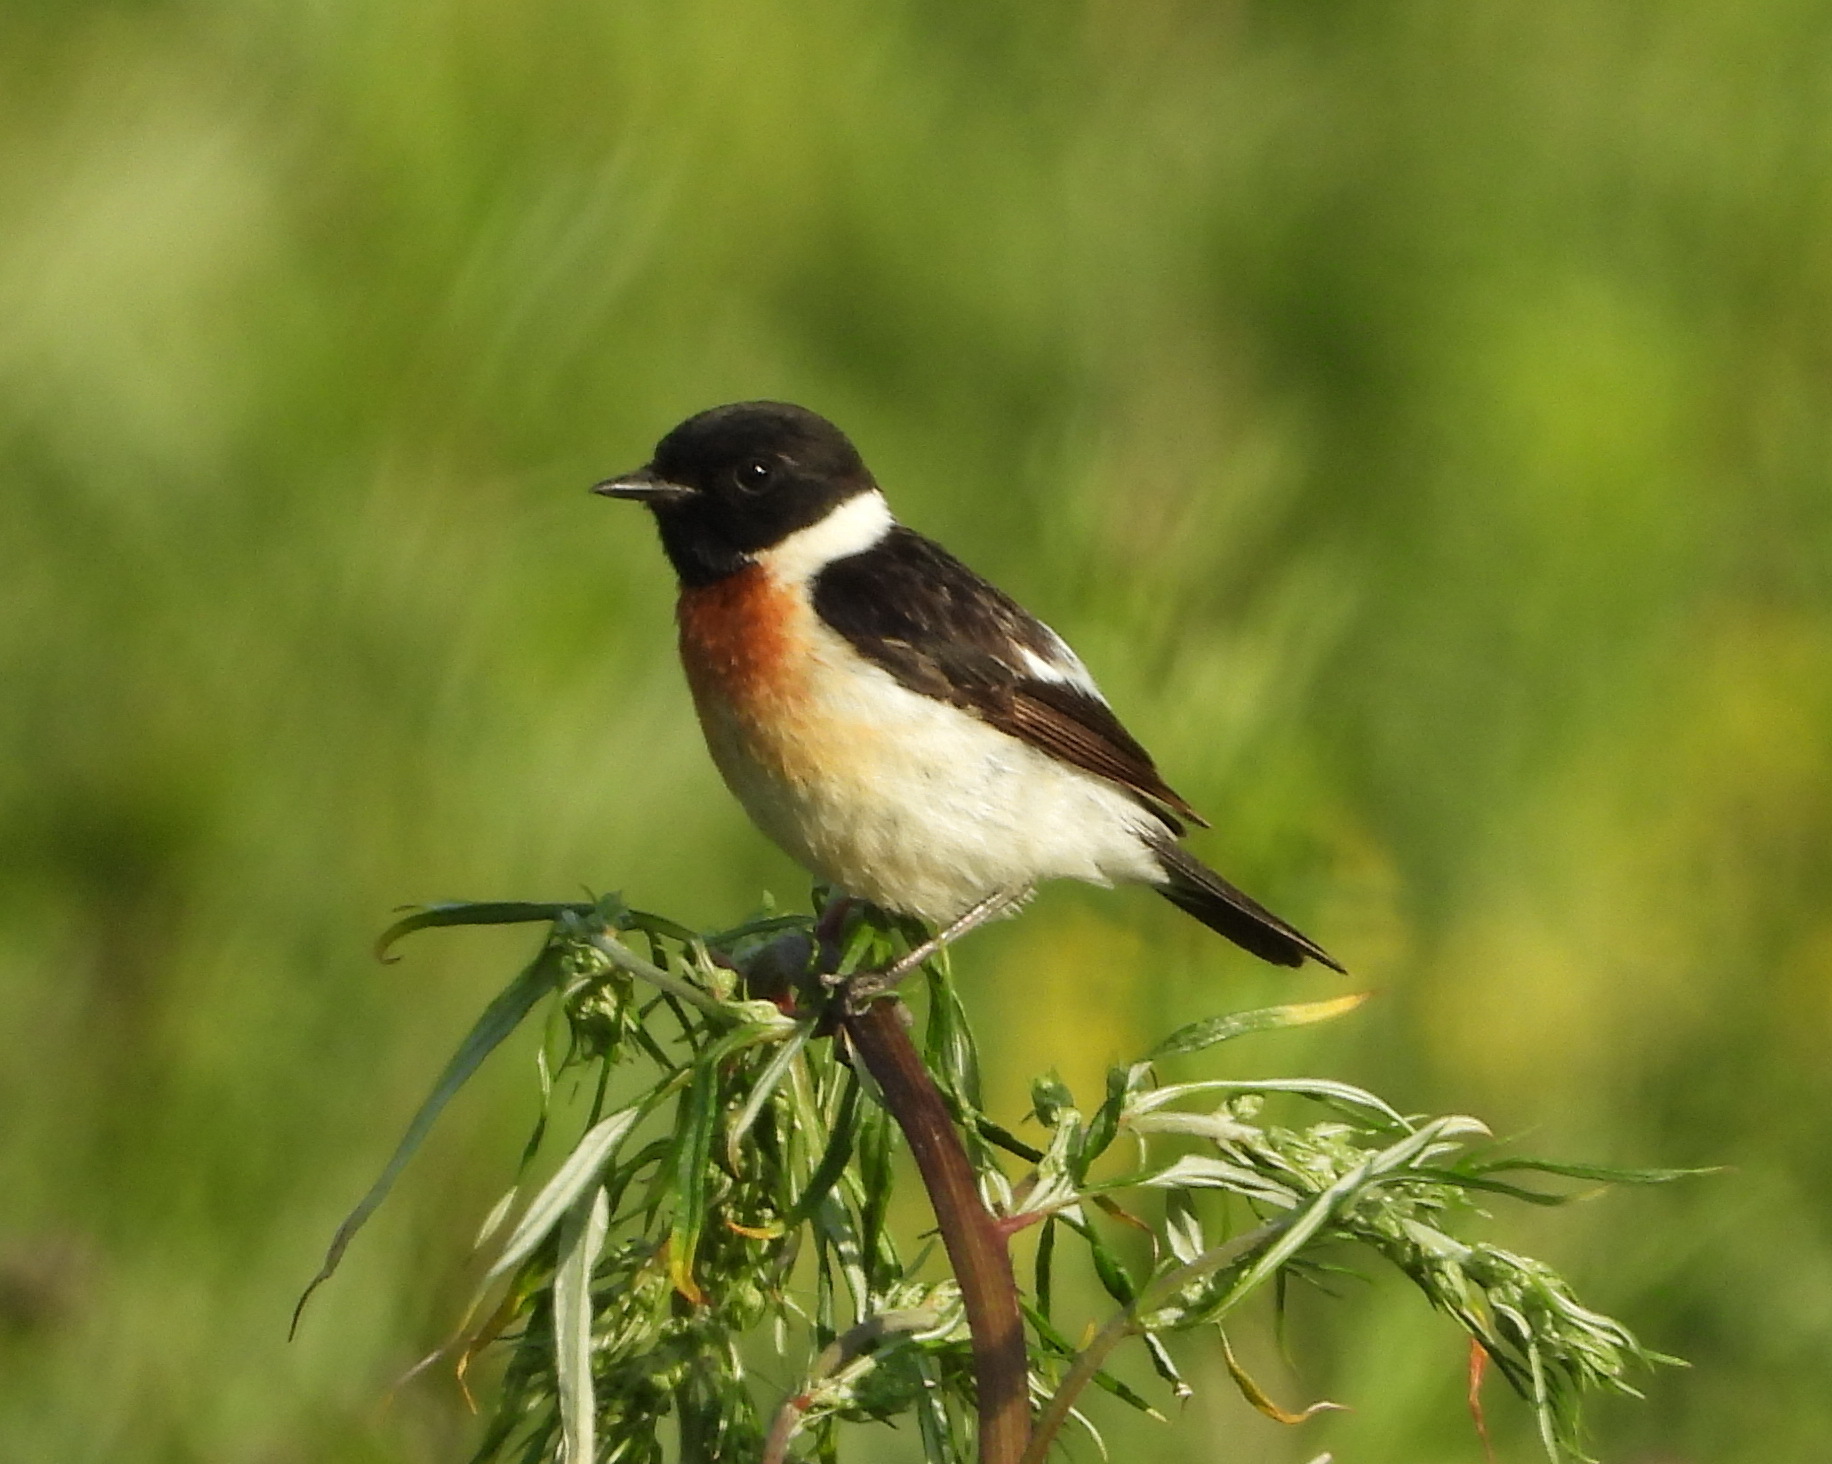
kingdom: Animalia
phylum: Chordata
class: Aves
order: Passeriformes
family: Muscicapidae
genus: Saxicola
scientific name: Saxicola maurus
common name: Siberian stonechat
